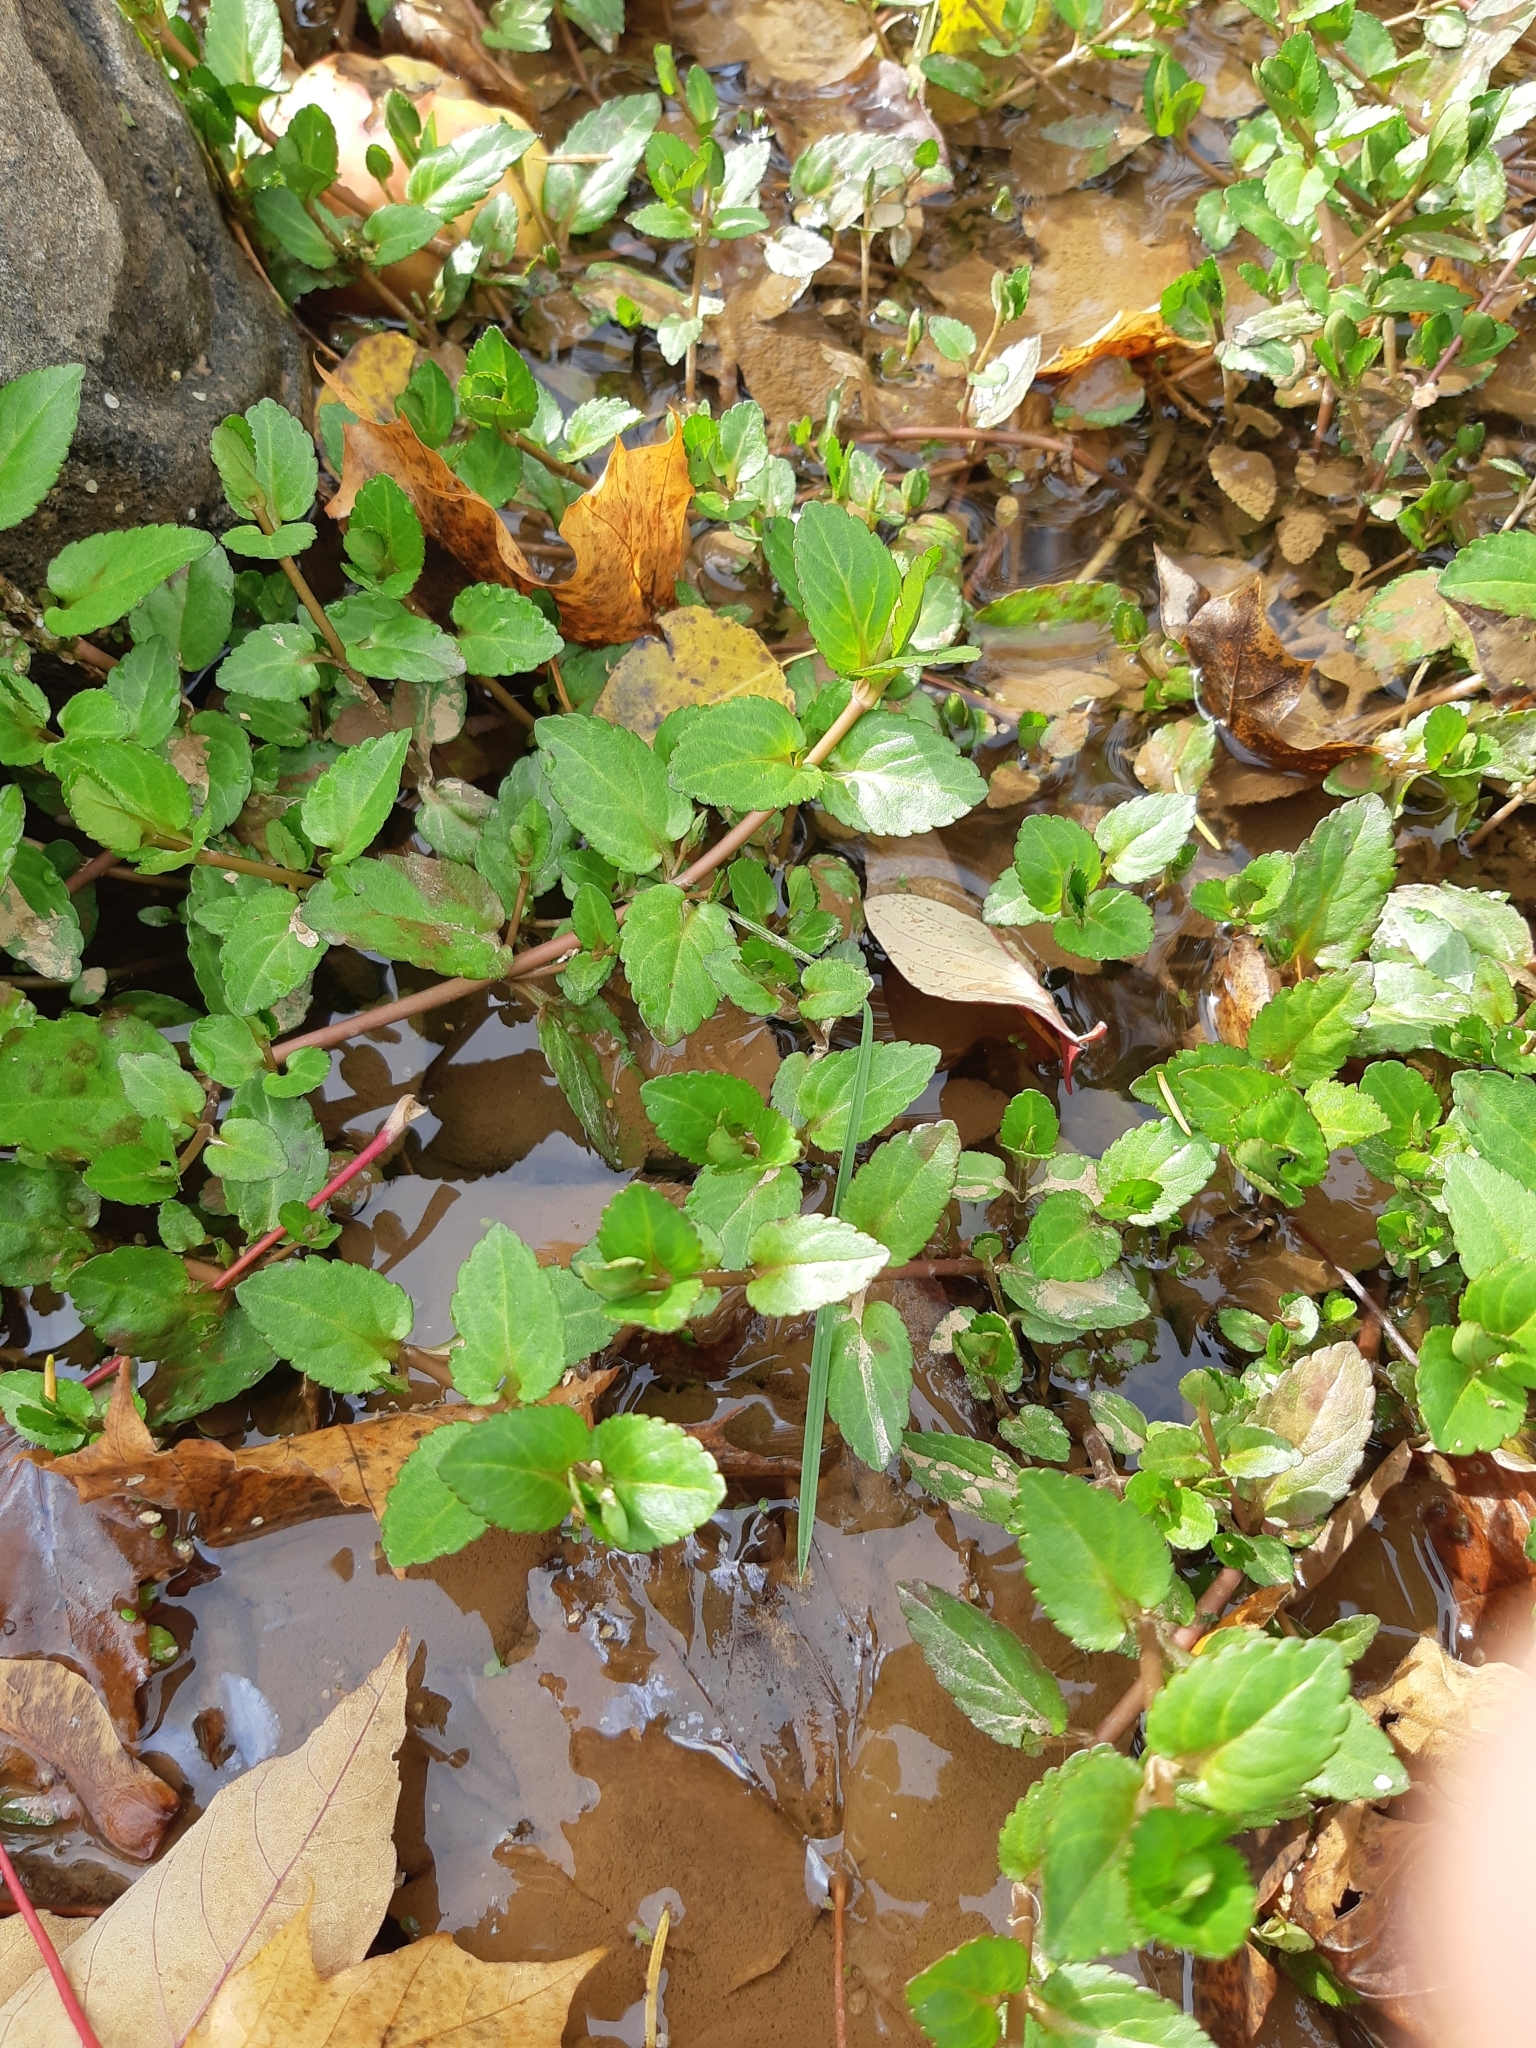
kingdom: Plantae
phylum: Tracheophyta
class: Magnoliopsida
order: Lamiales
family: Plantaginaceae
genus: Veronica
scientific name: Veronica americana
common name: American brooklime
